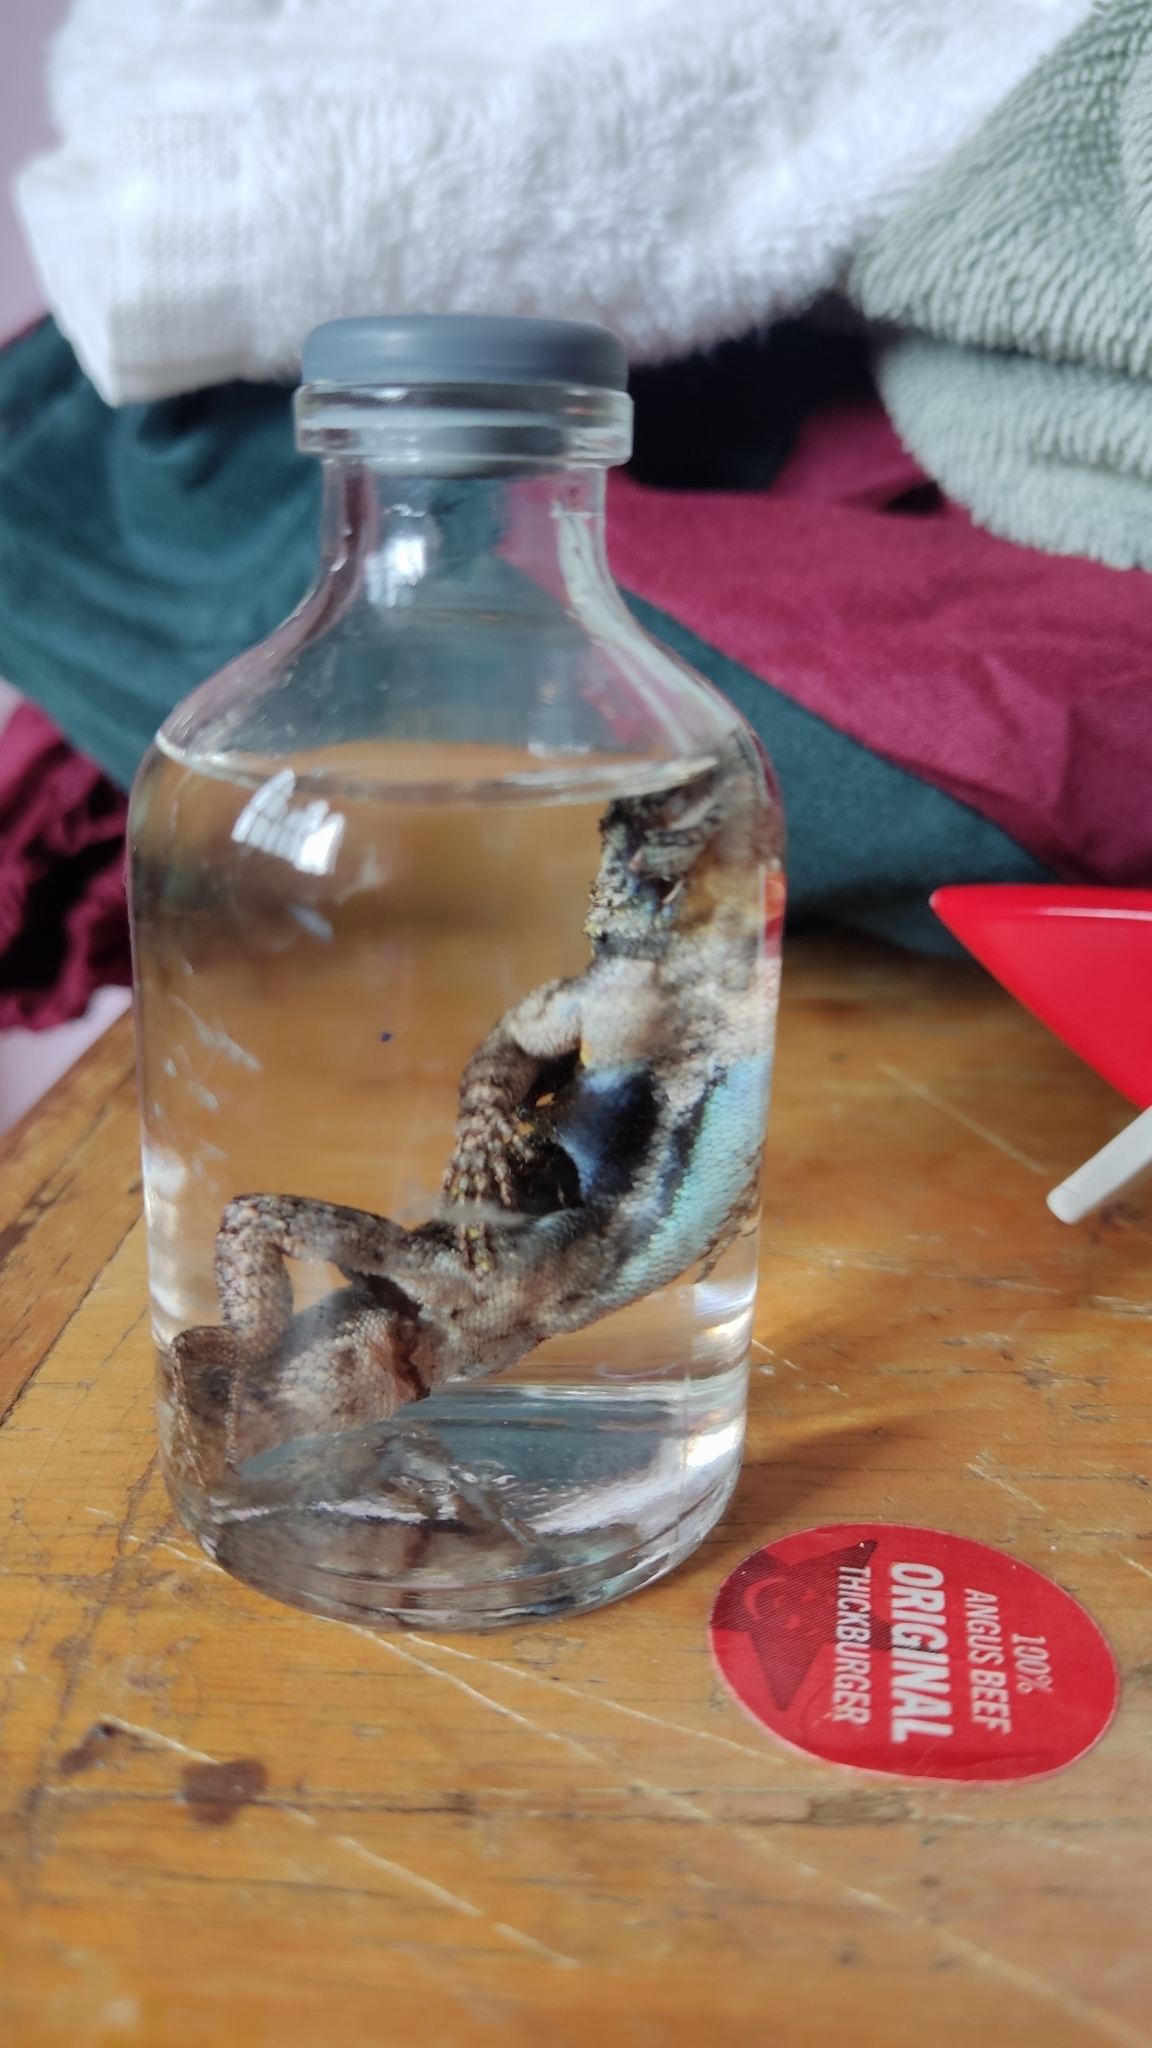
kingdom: Animalia
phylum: Chordata
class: Squamata
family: Phrynosomatidae
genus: Sceloporus
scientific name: Sceloporus grammicus
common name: Mesquite lizard
